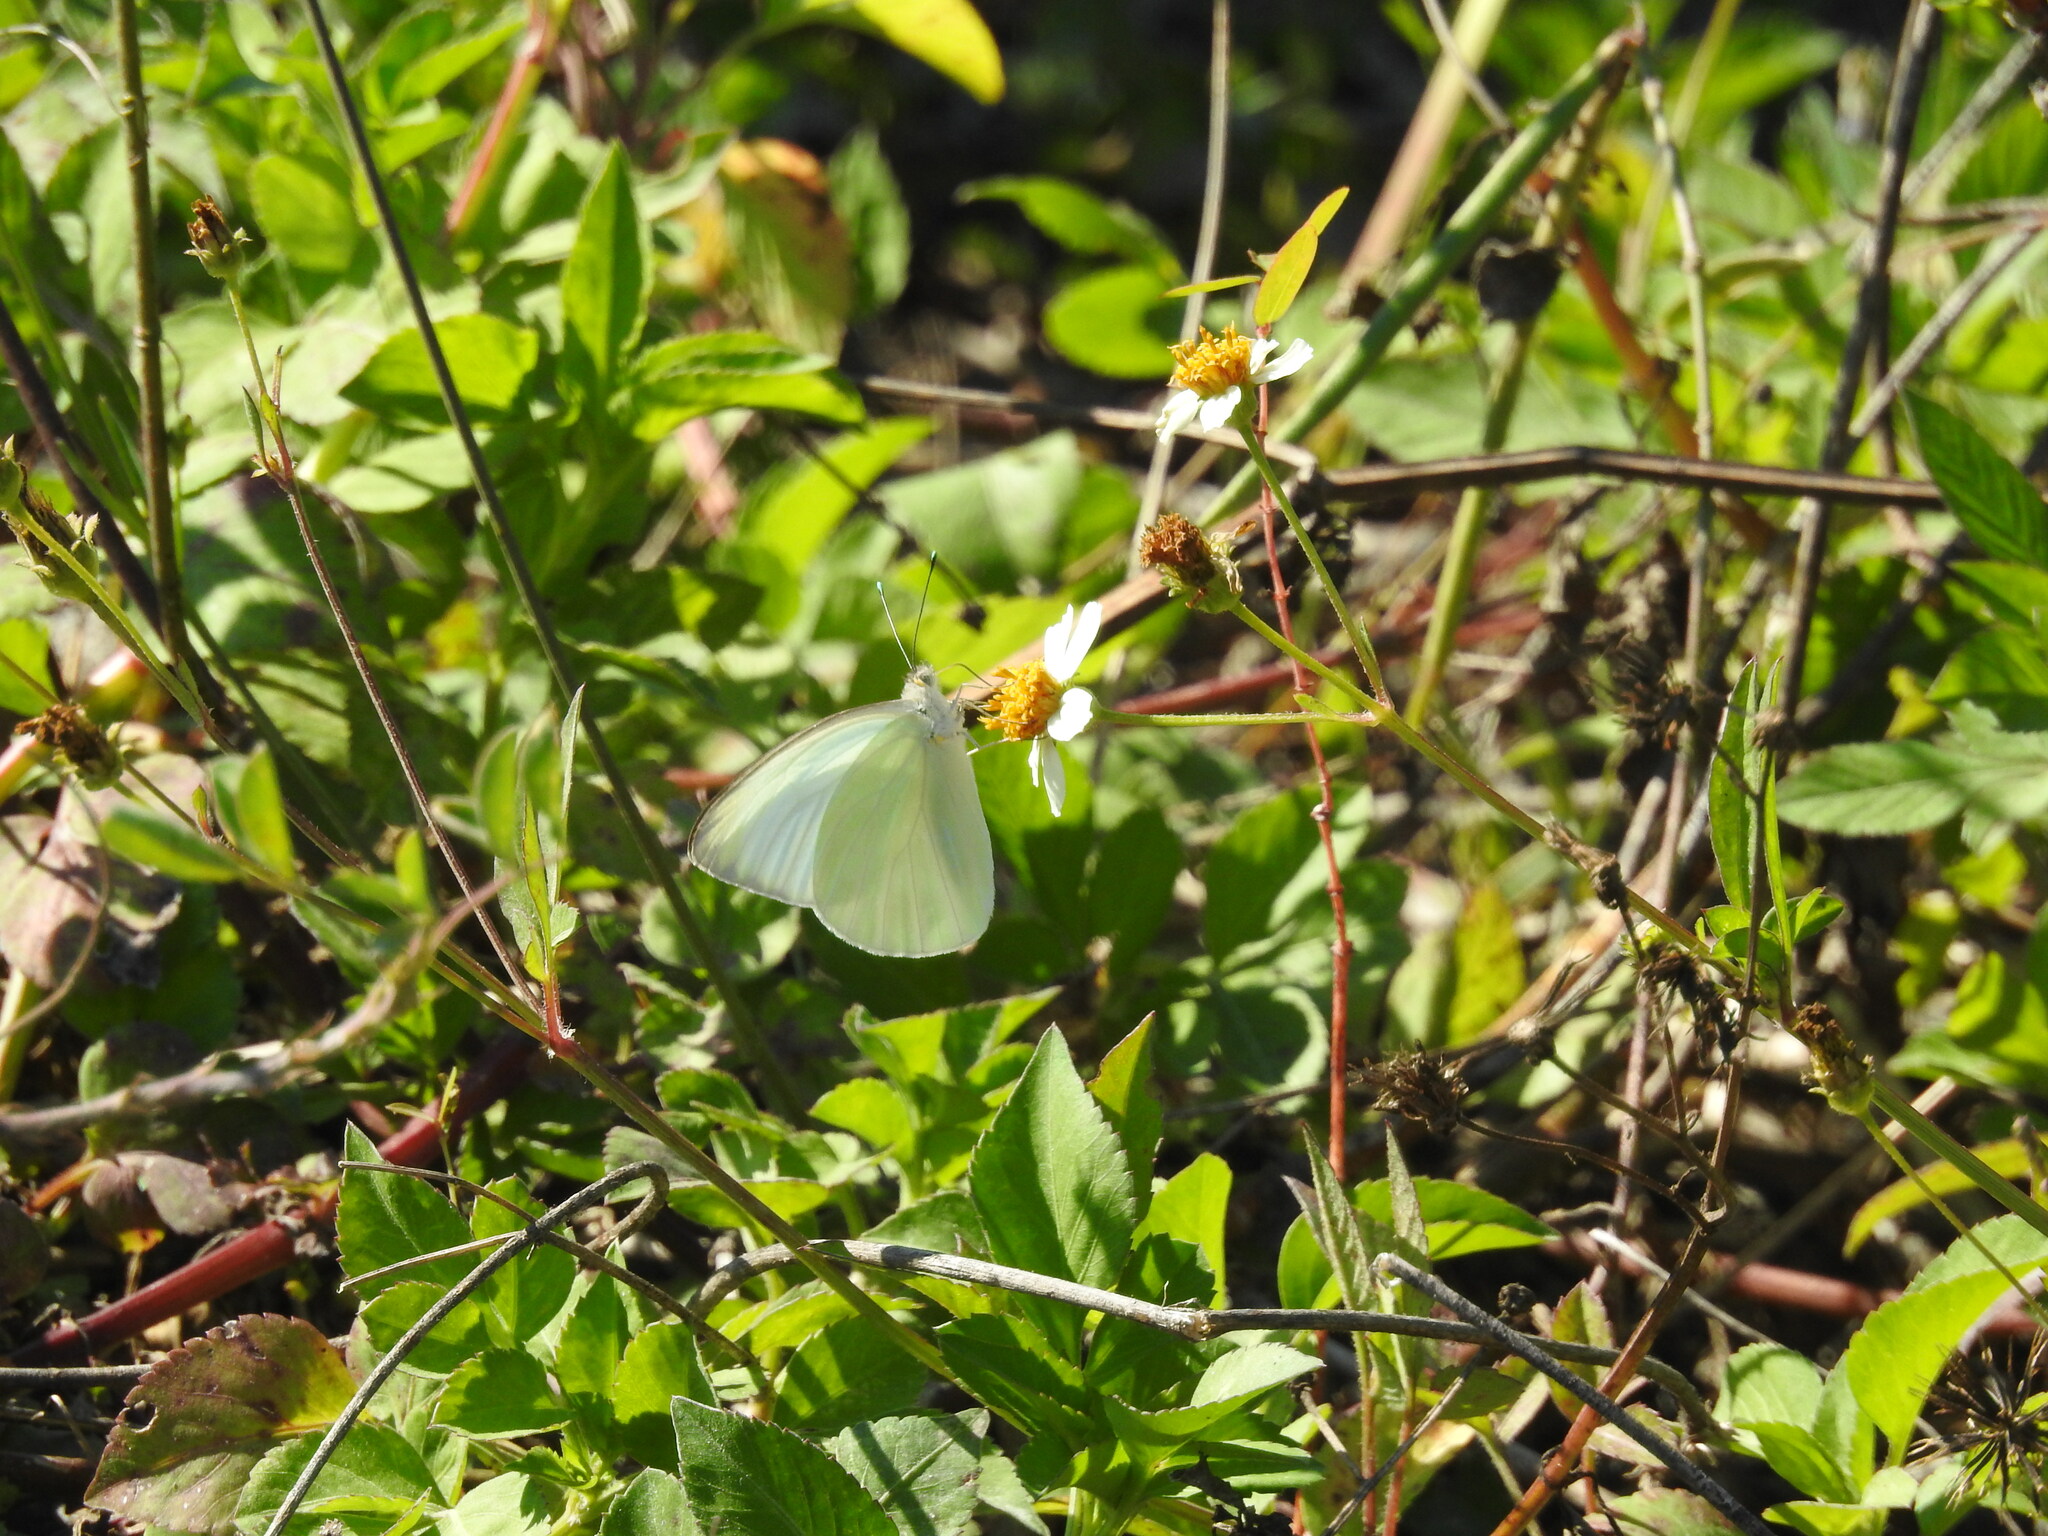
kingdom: Animalia
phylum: Arthropoda
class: Insecta
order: Lepidoptera
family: Pieridae
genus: Ascia
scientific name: Ascia monuste
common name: Great southern white
